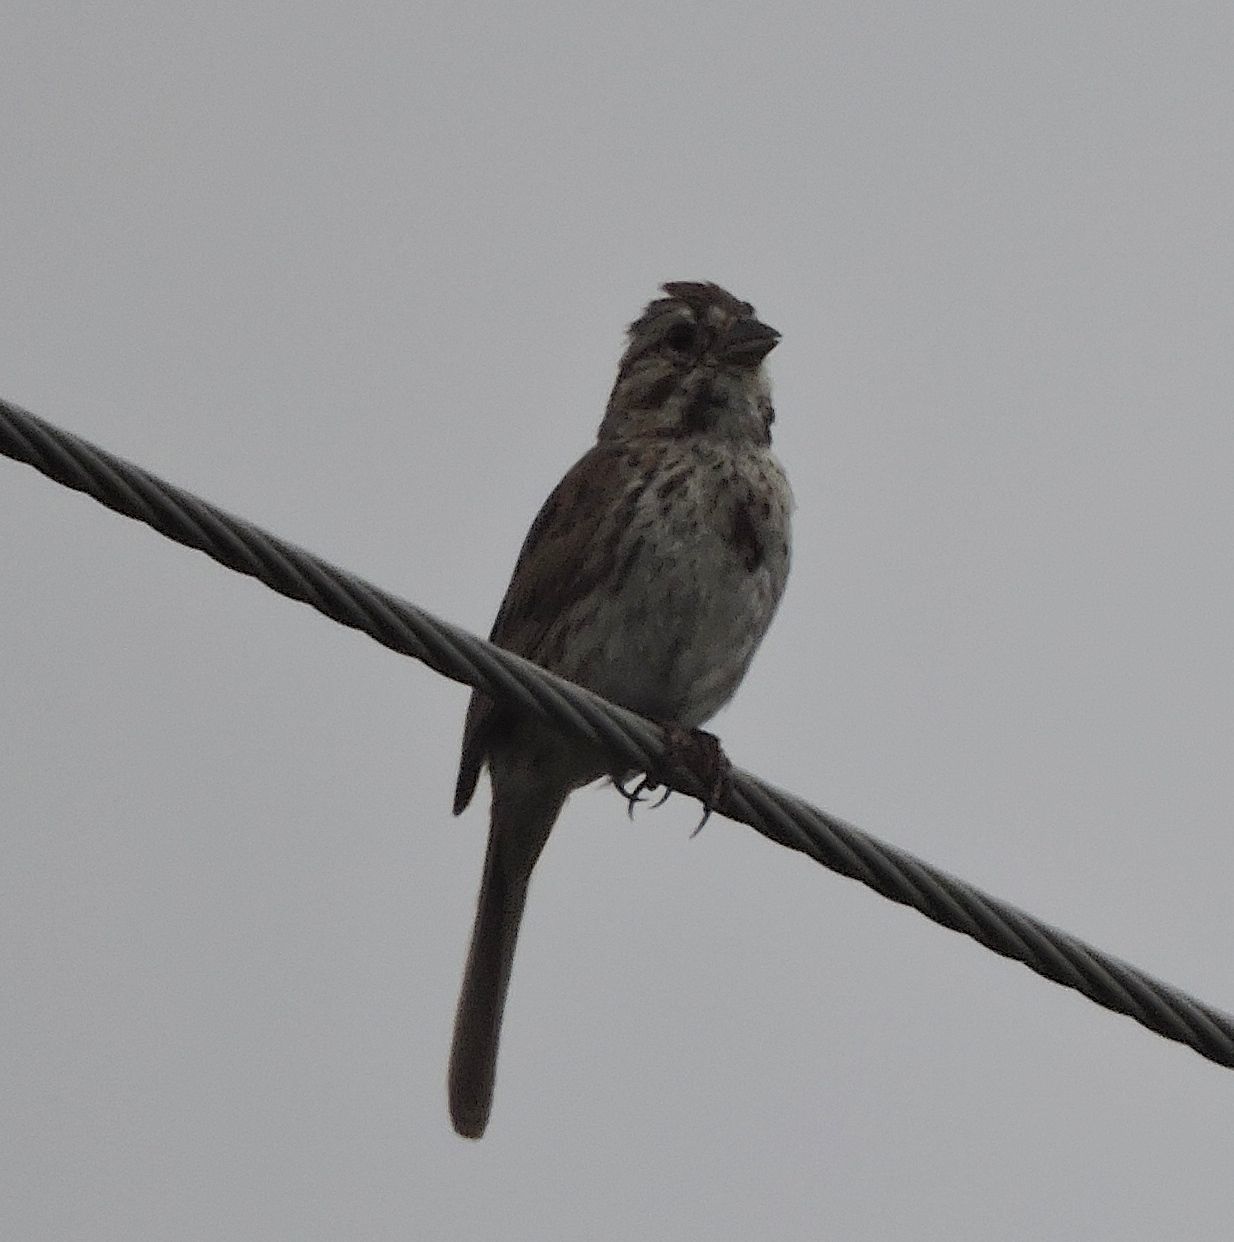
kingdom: Animalia
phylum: Chordata
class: Aves
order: Passeriformes
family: Passerellidae
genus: Melospiza
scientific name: Melospiza melodia
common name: Song sparrow
